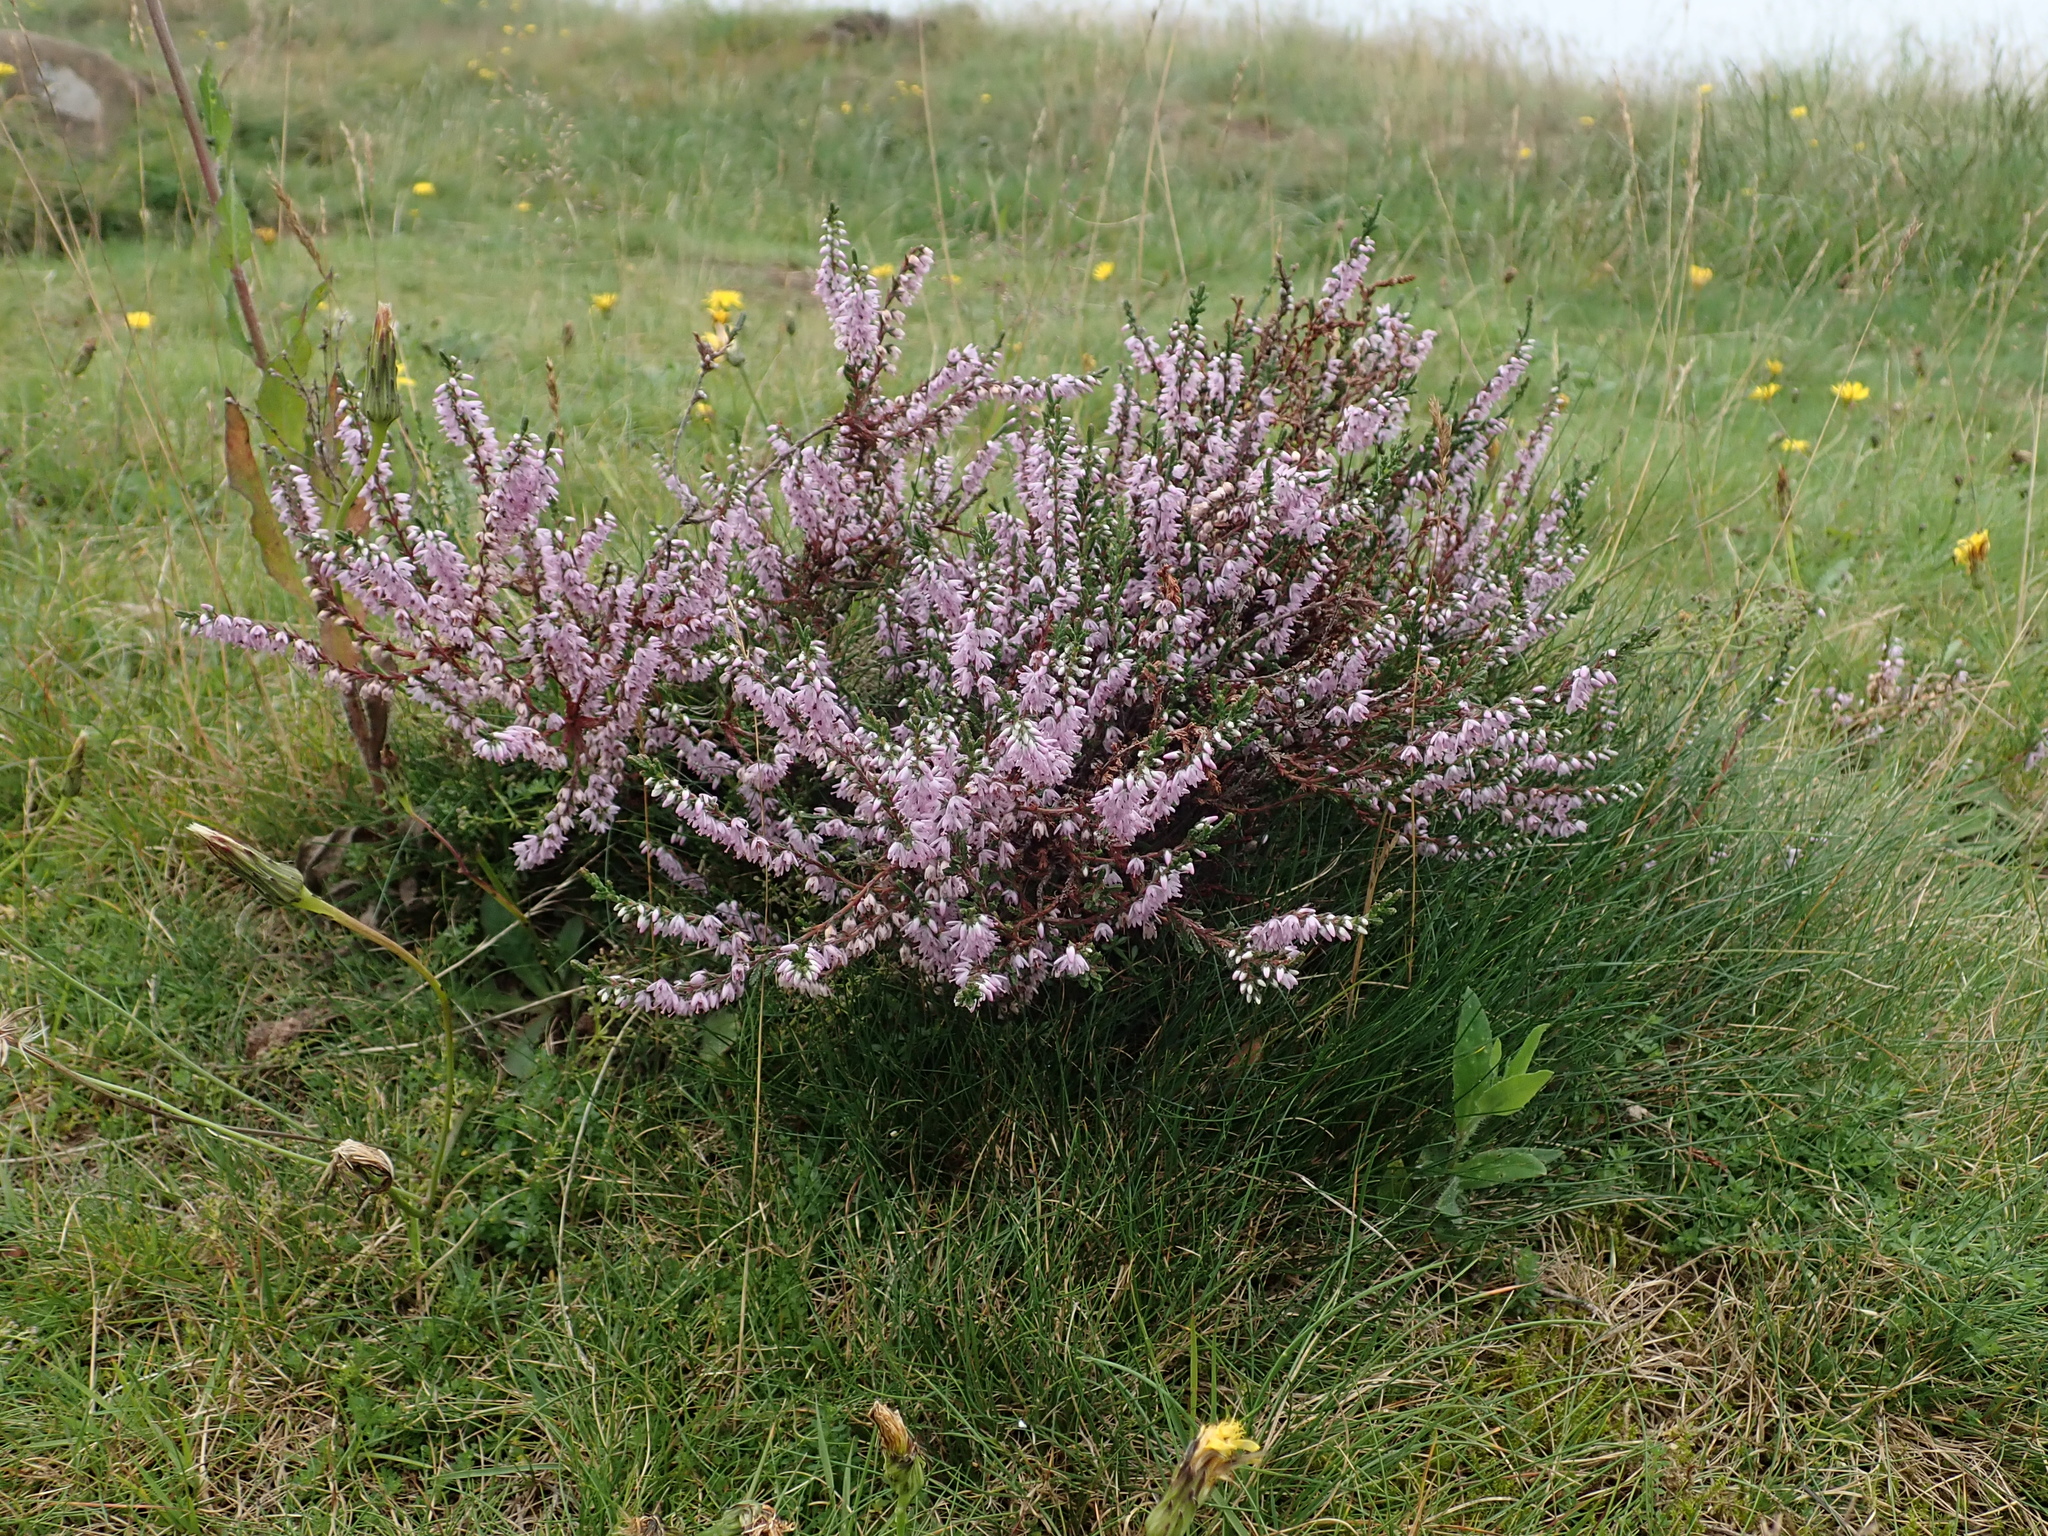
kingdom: Plantae
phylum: Tracheophyta
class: Magnoliopsida
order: Ericales
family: Ericaceae
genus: Calluna
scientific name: Calluna vulgaris
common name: Heather
